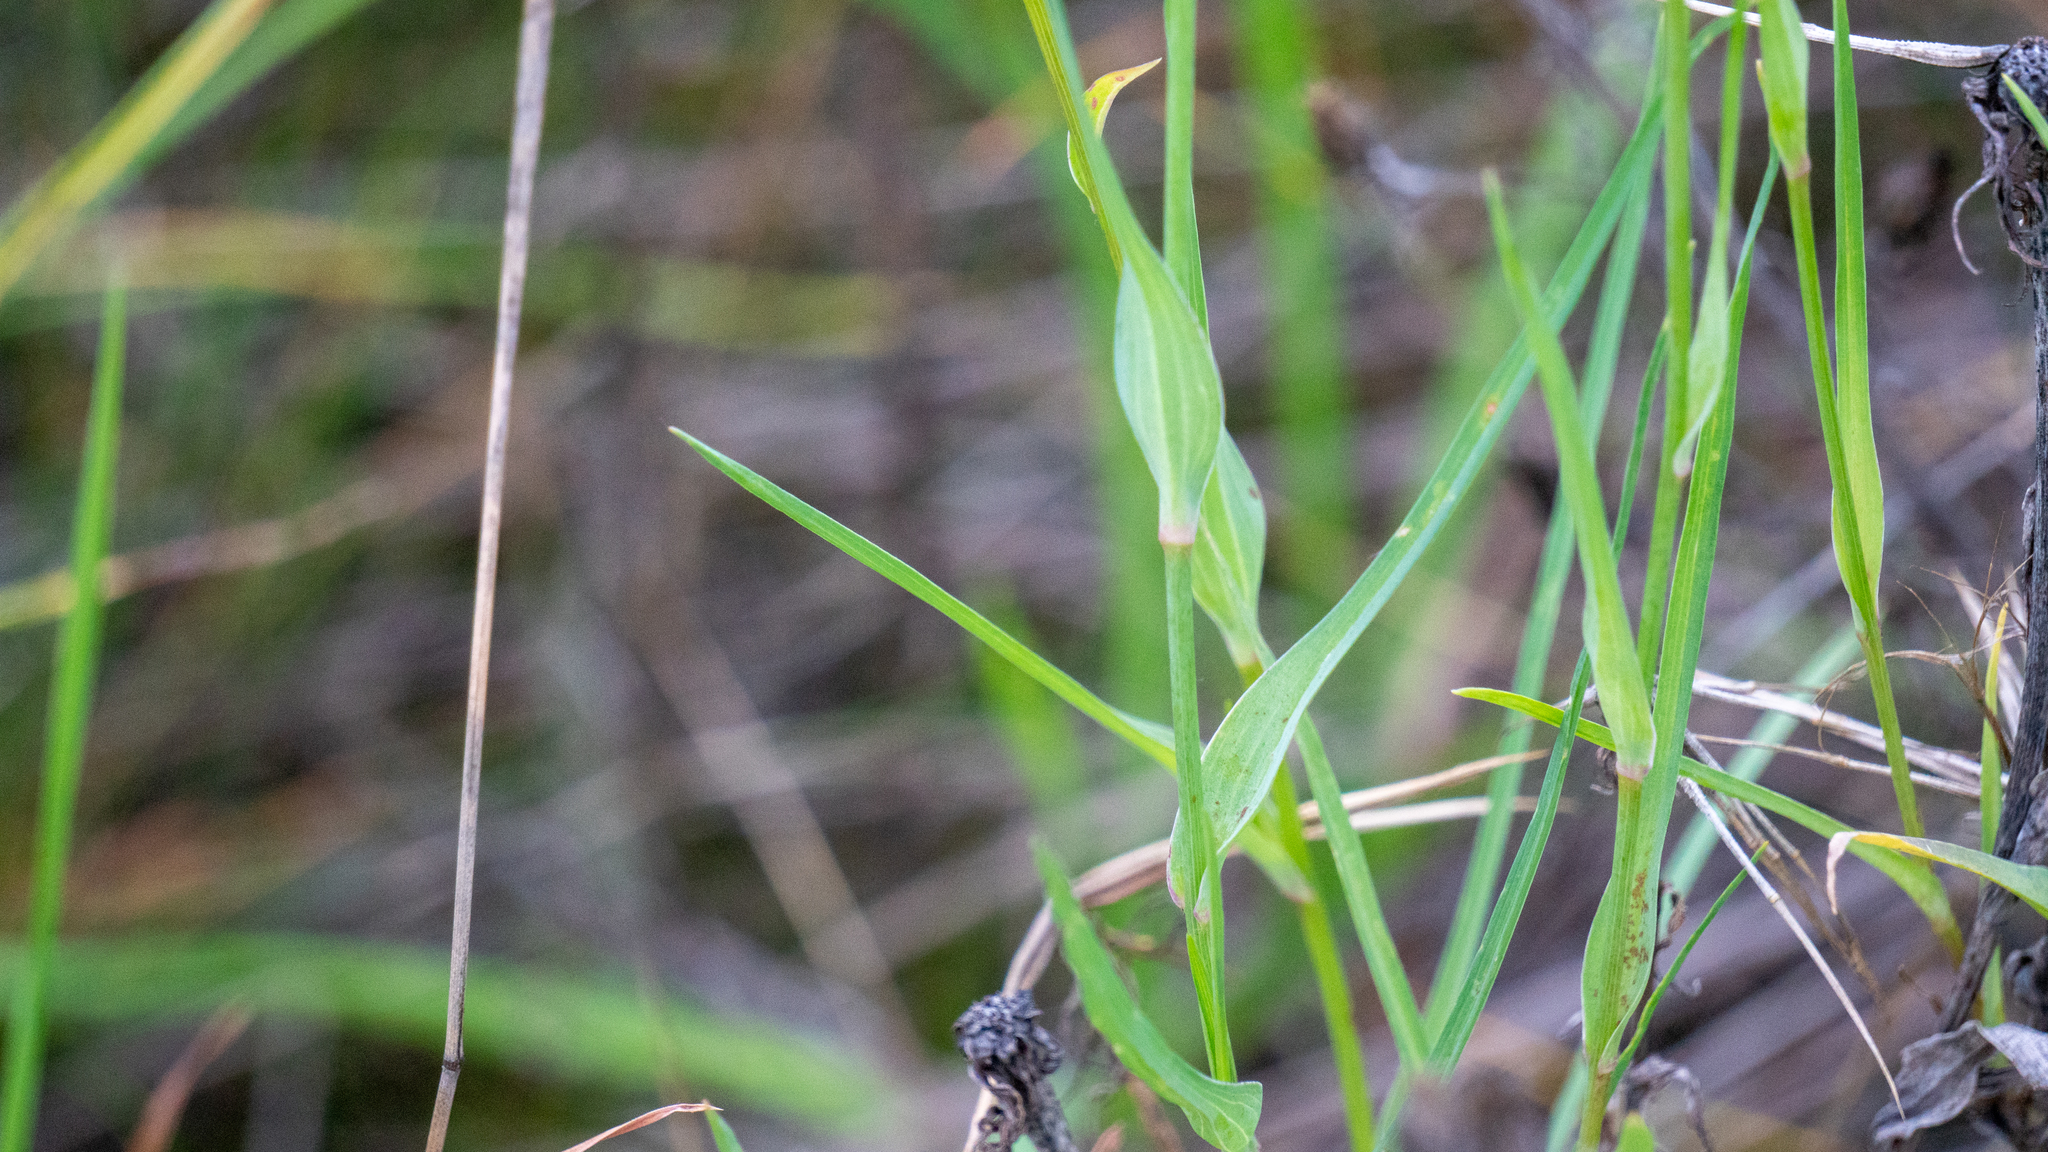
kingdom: Plantae
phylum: Tracheophyta
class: Magnoliopsida
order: Asterales
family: Asteraceae
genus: Tragopogon
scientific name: Tragopogon dubius
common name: Yellow salsify
